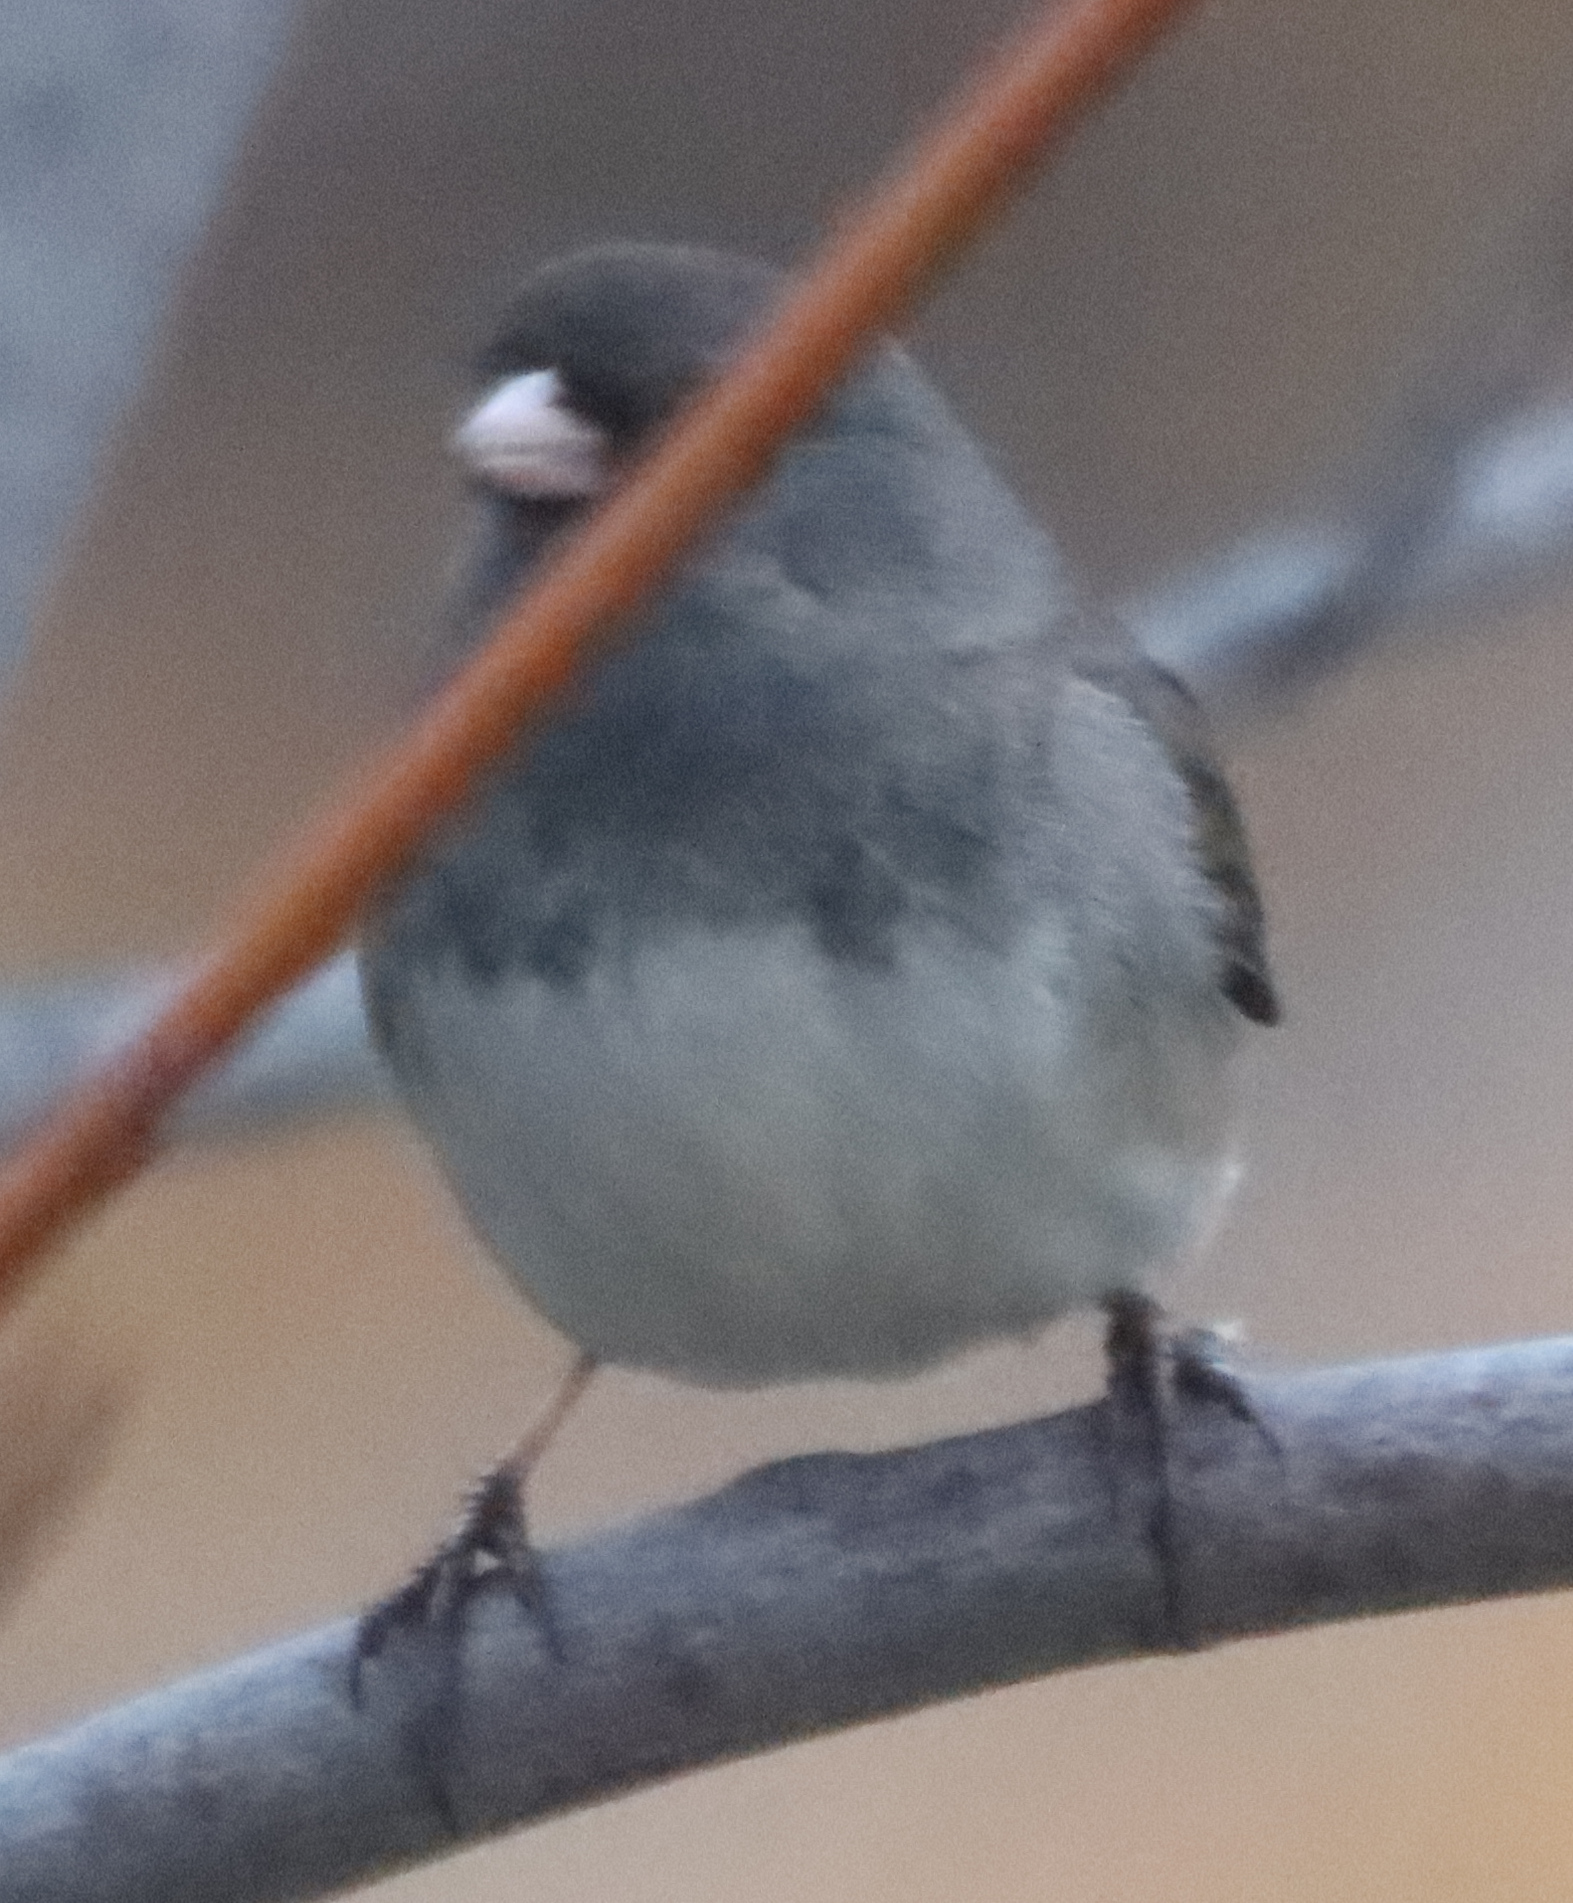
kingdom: Animalia
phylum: Chordata
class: Aves
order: Passeriformes
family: Passerellidae
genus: Junco
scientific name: Junco hyemalis
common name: Dark-eyed junco
